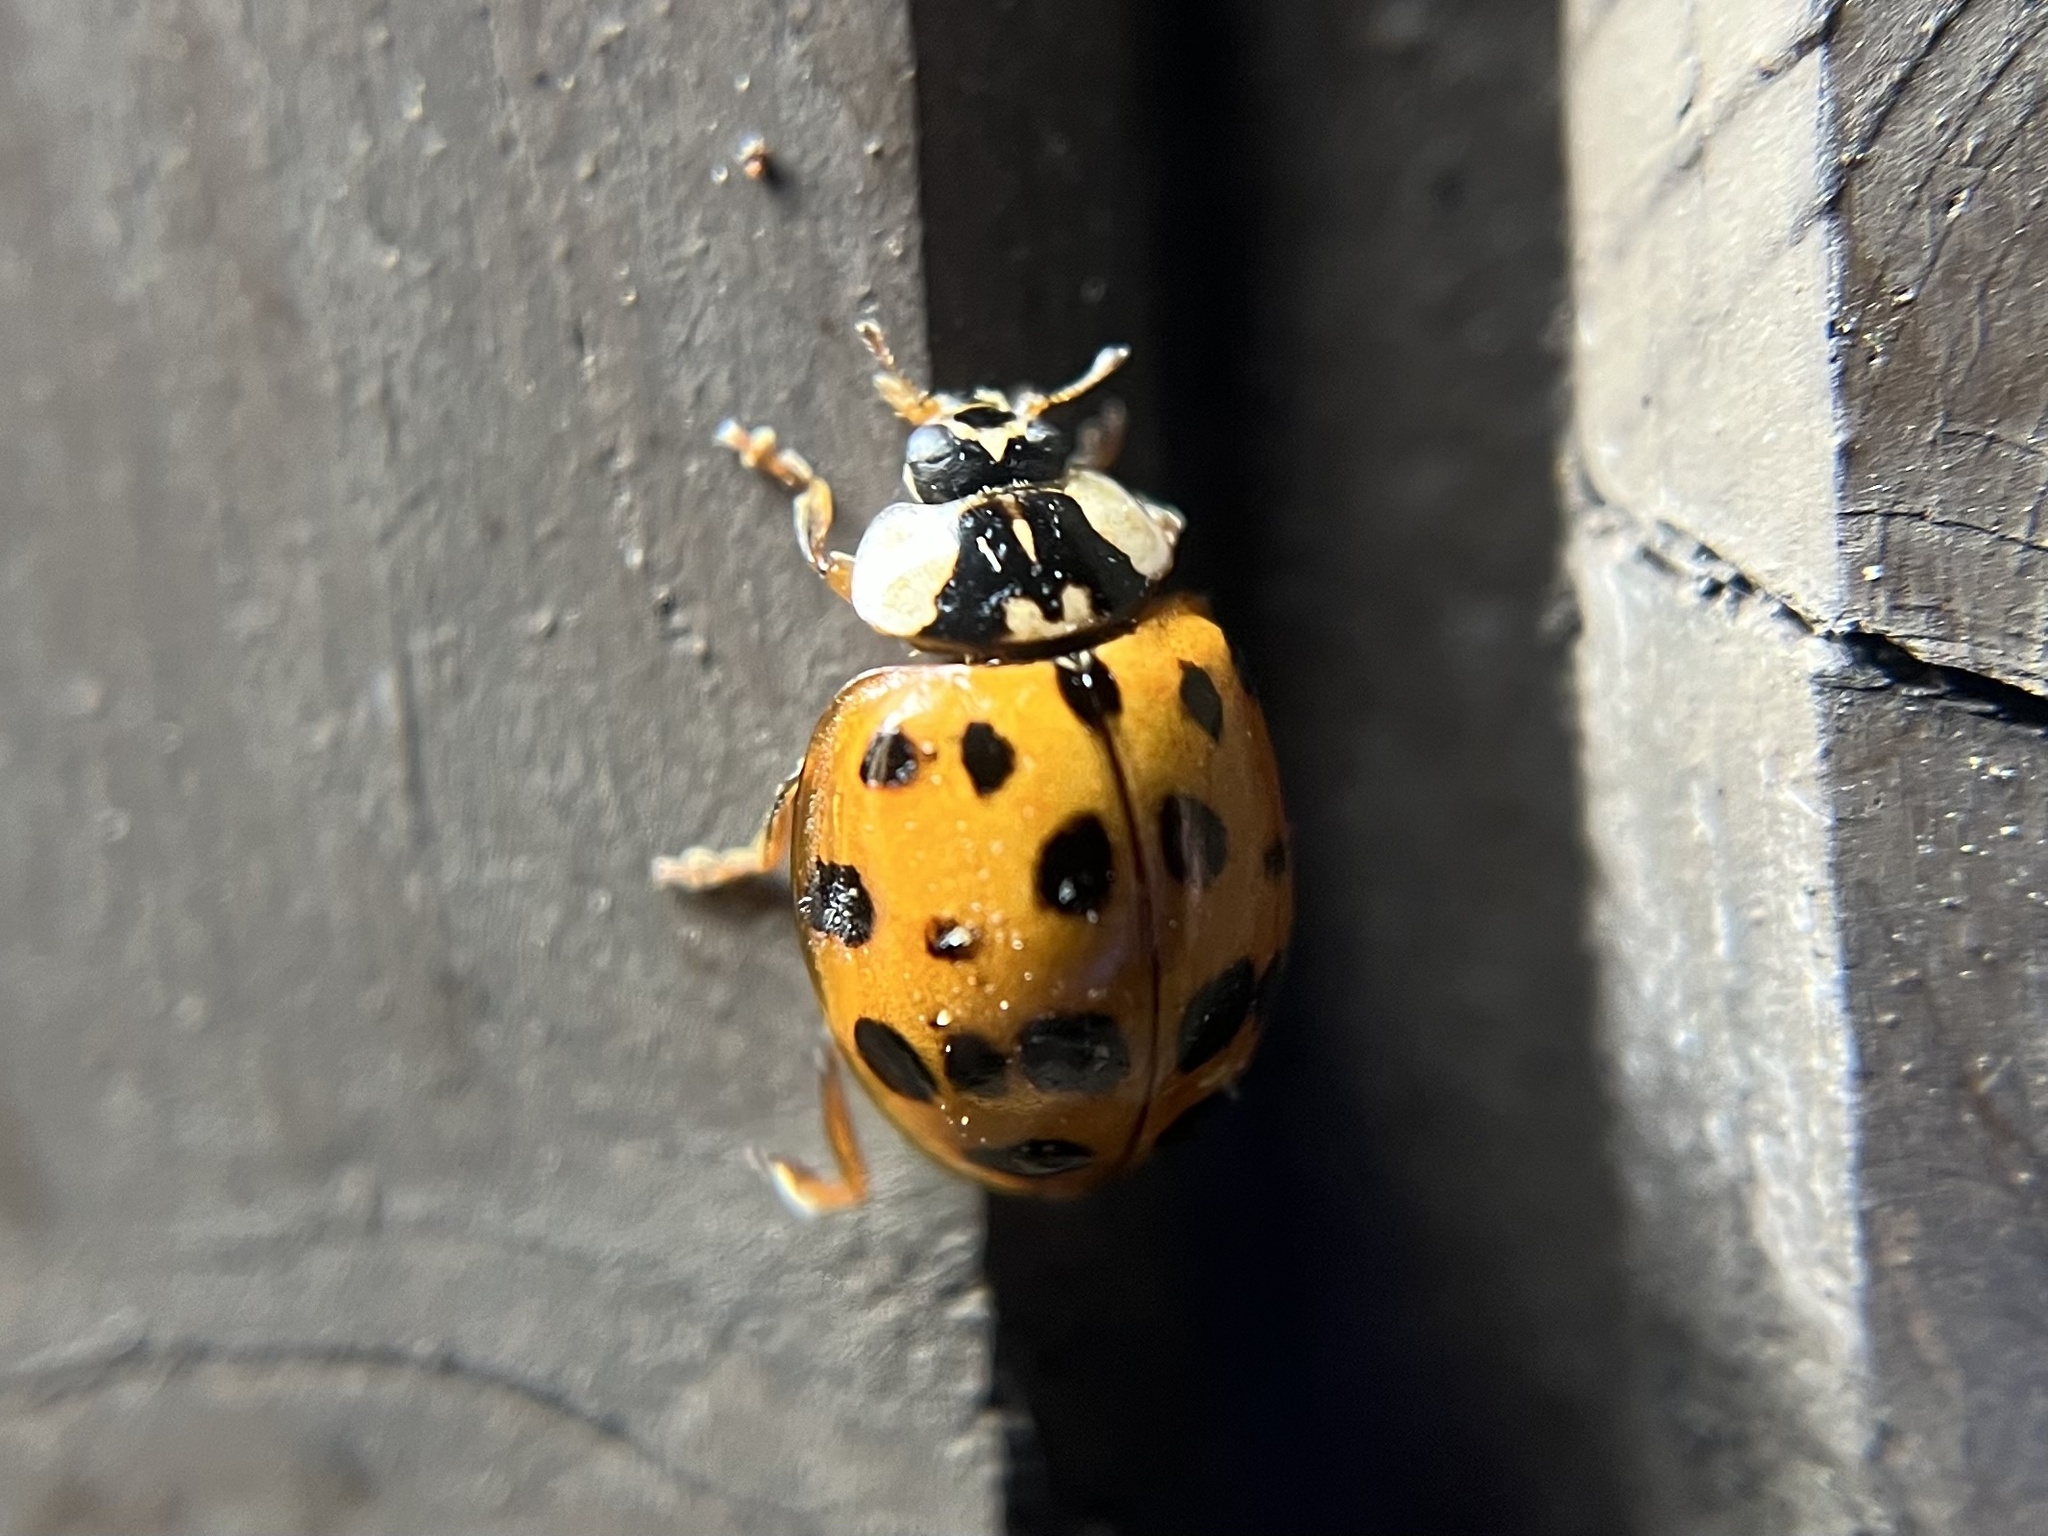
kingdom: Animalia
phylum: Arthropoda
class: Insecta
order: Coleoptera
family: Coccinellidae
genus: Harmonia
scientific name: Harmonia axyridis
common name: Harlequin ladybird
